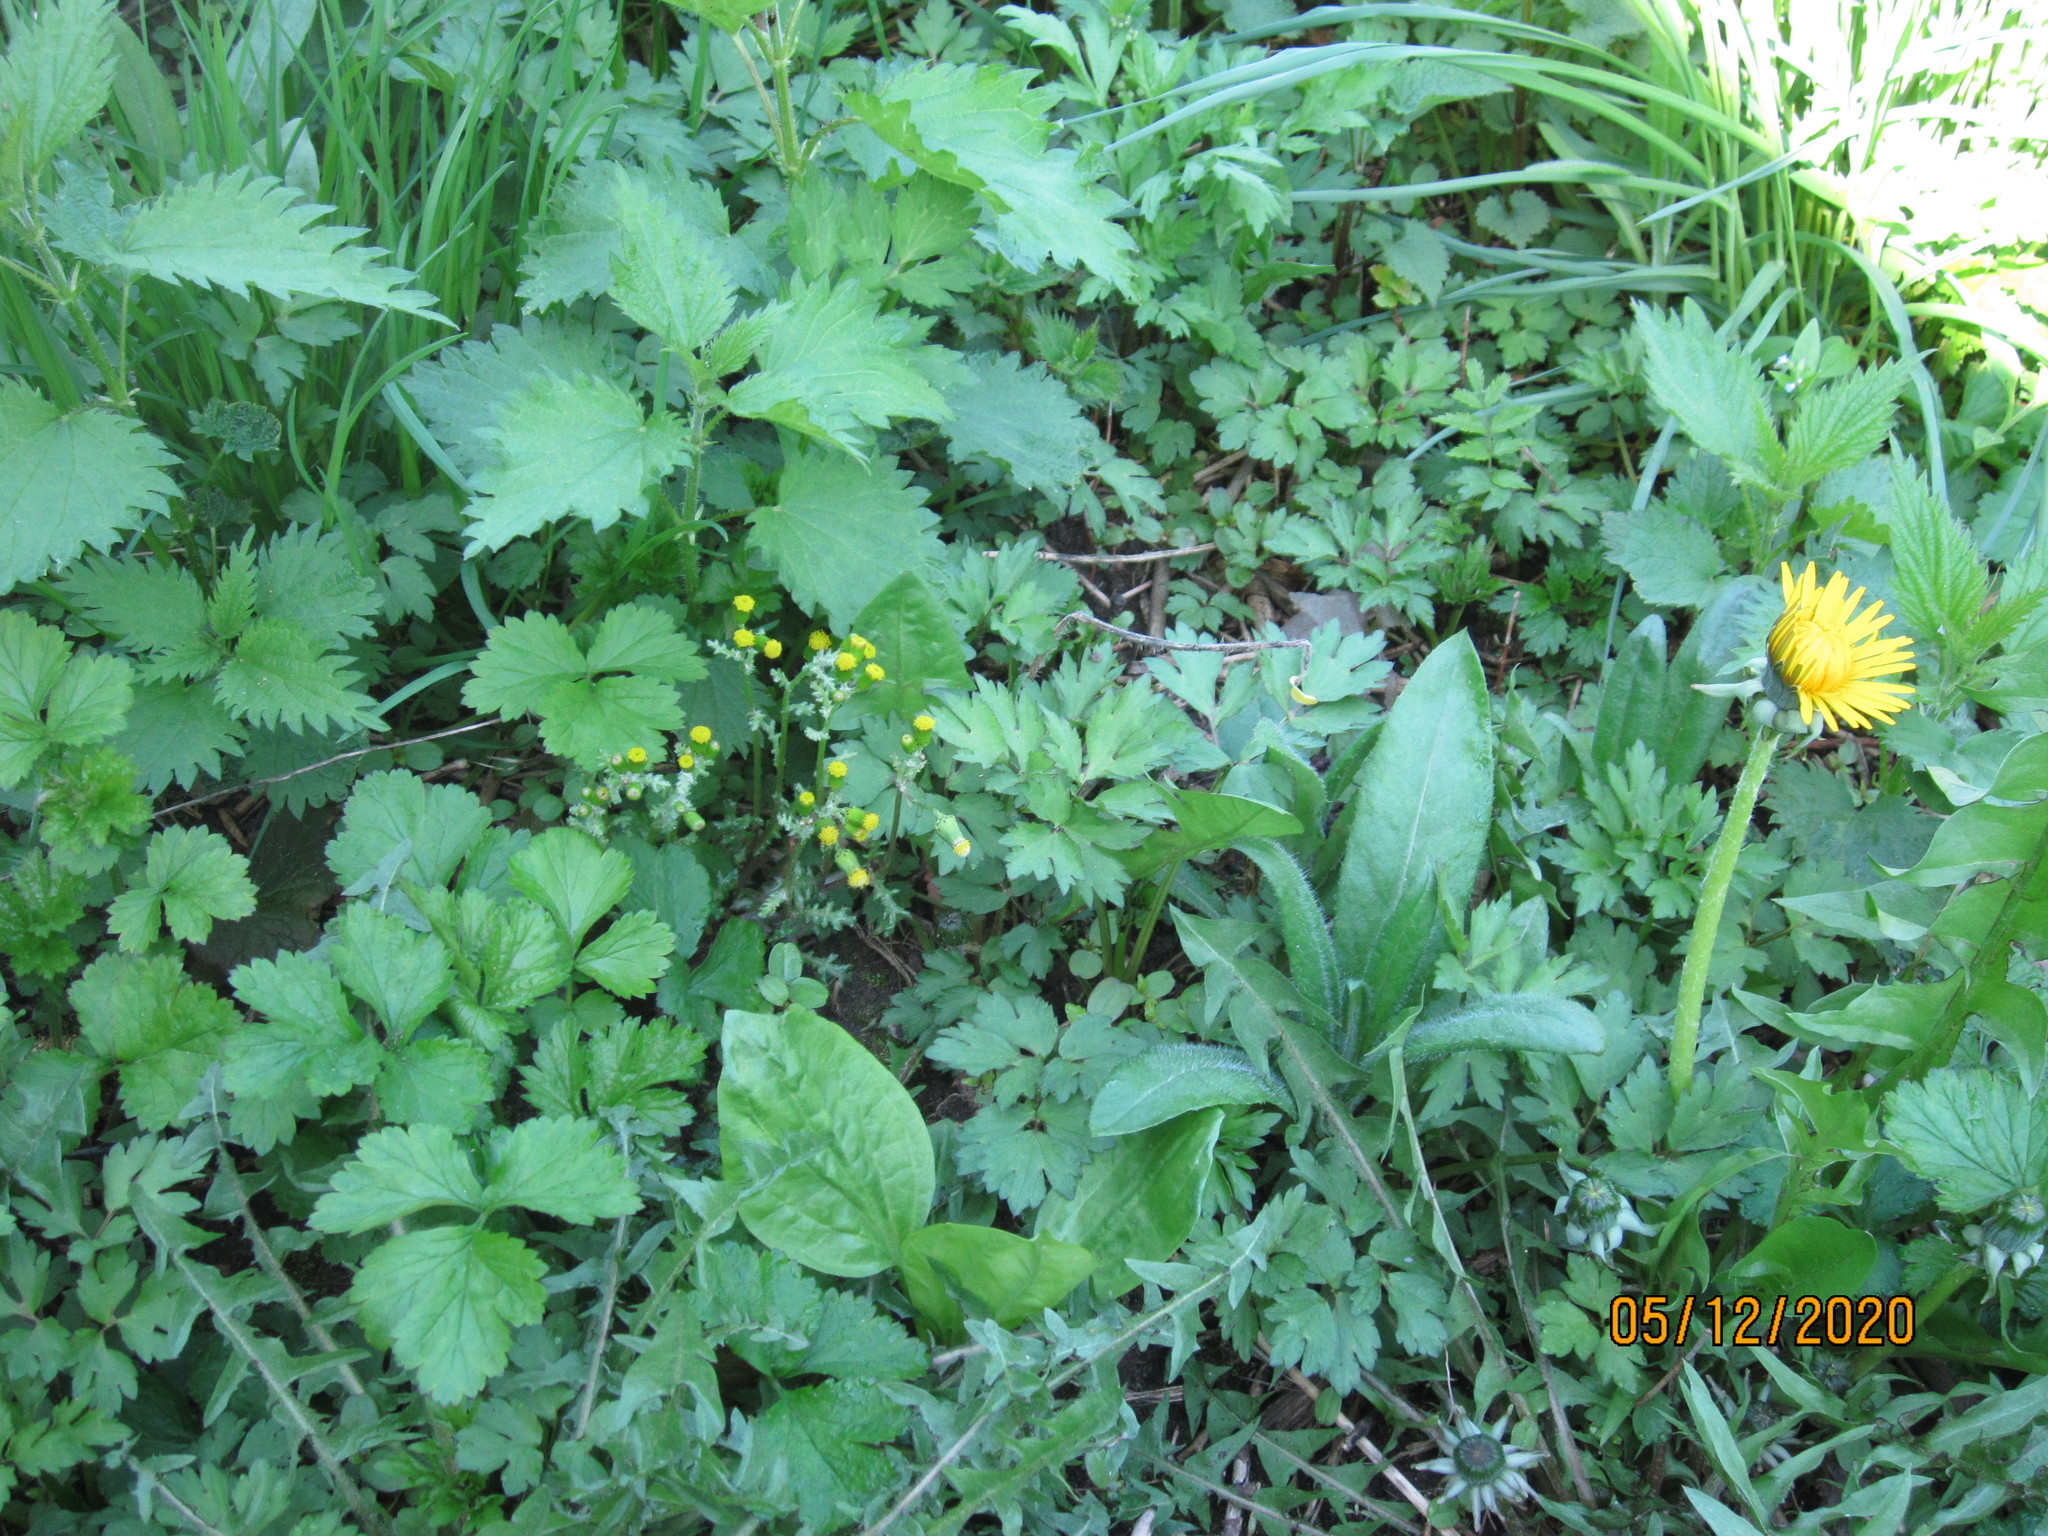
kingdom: Plantae
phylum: Tracheophyta
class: Magnoliopsida
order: Asterales
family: Asteraceae
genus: Senecio
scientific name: Senecio vulgaris
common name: Old-man-in-the-spring
